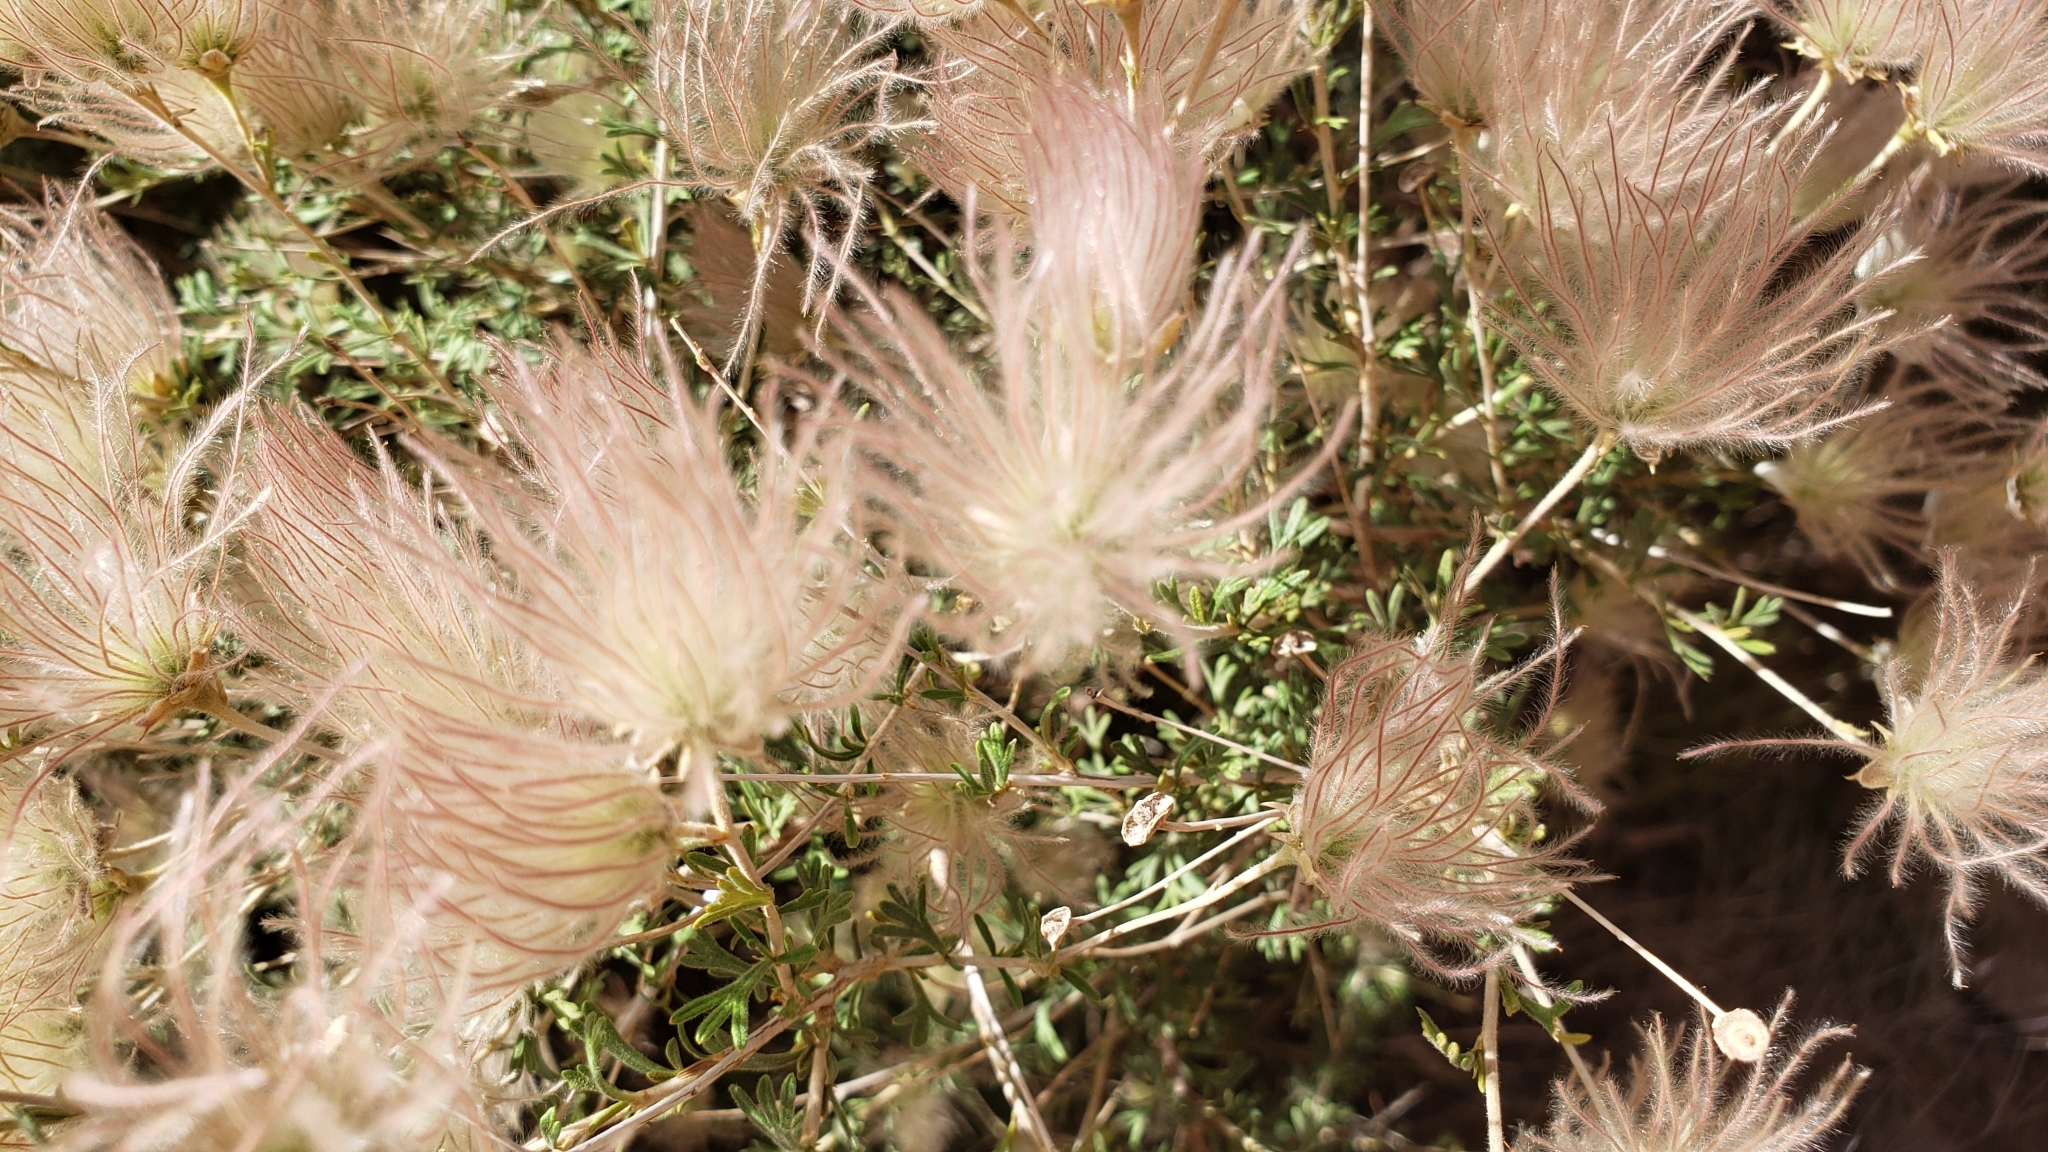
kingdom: Plantae
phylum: Tracheophyta
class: Magnoliopsida
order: Rosales
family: Rosaceae
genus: Fallugia
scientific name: Fallugia paradoxa
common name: Apache-plume
